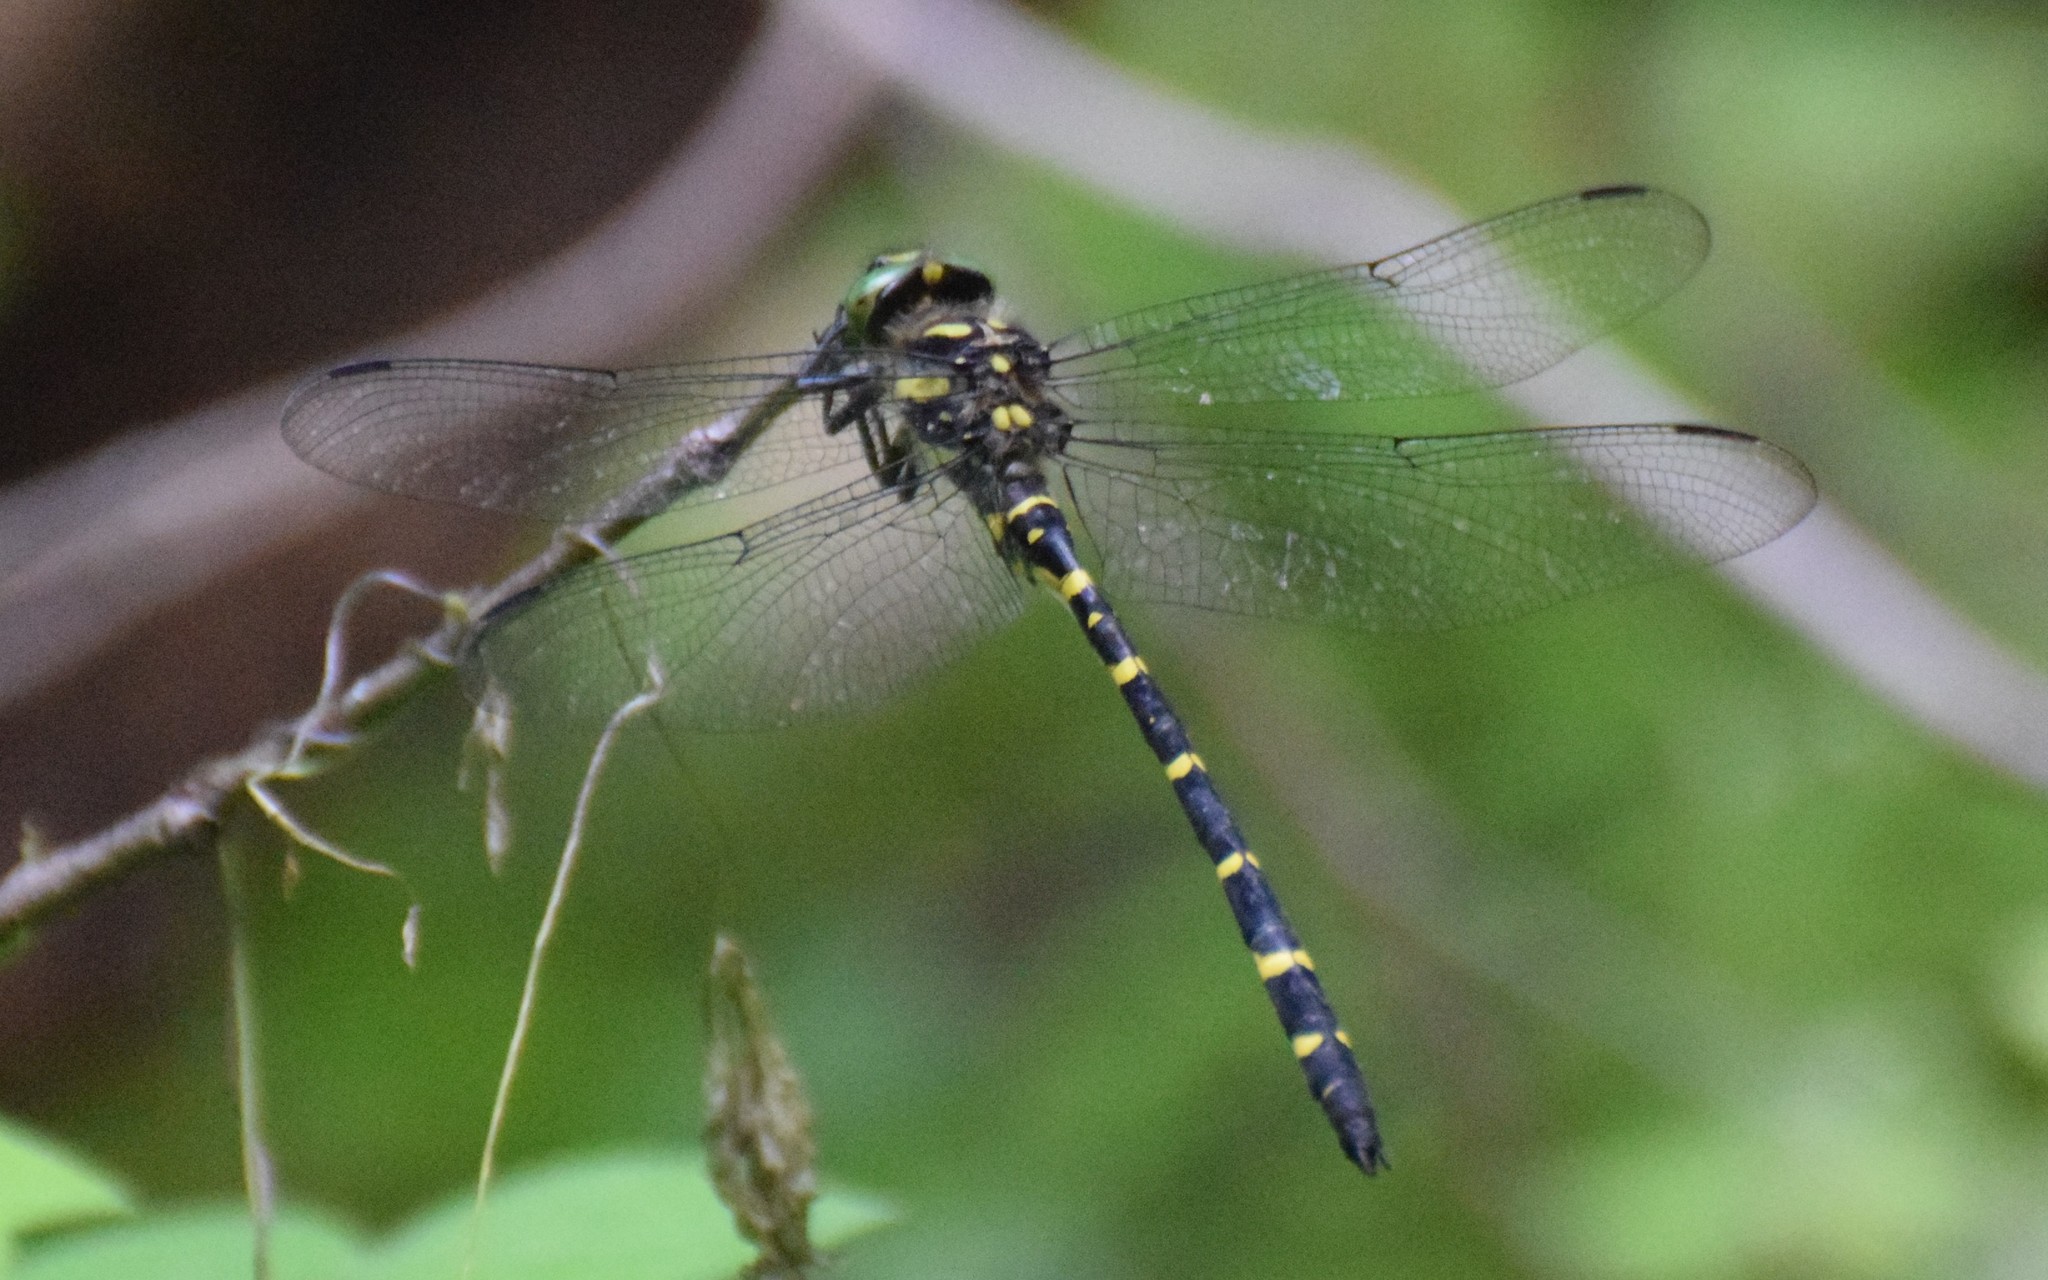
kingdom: Animalia
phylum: Arthropoda
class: Insecta
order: Odonata
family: Cordulegastridae
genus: Cordulegaster
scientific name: Cordulegaster erronea
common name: Tiger spiketail
